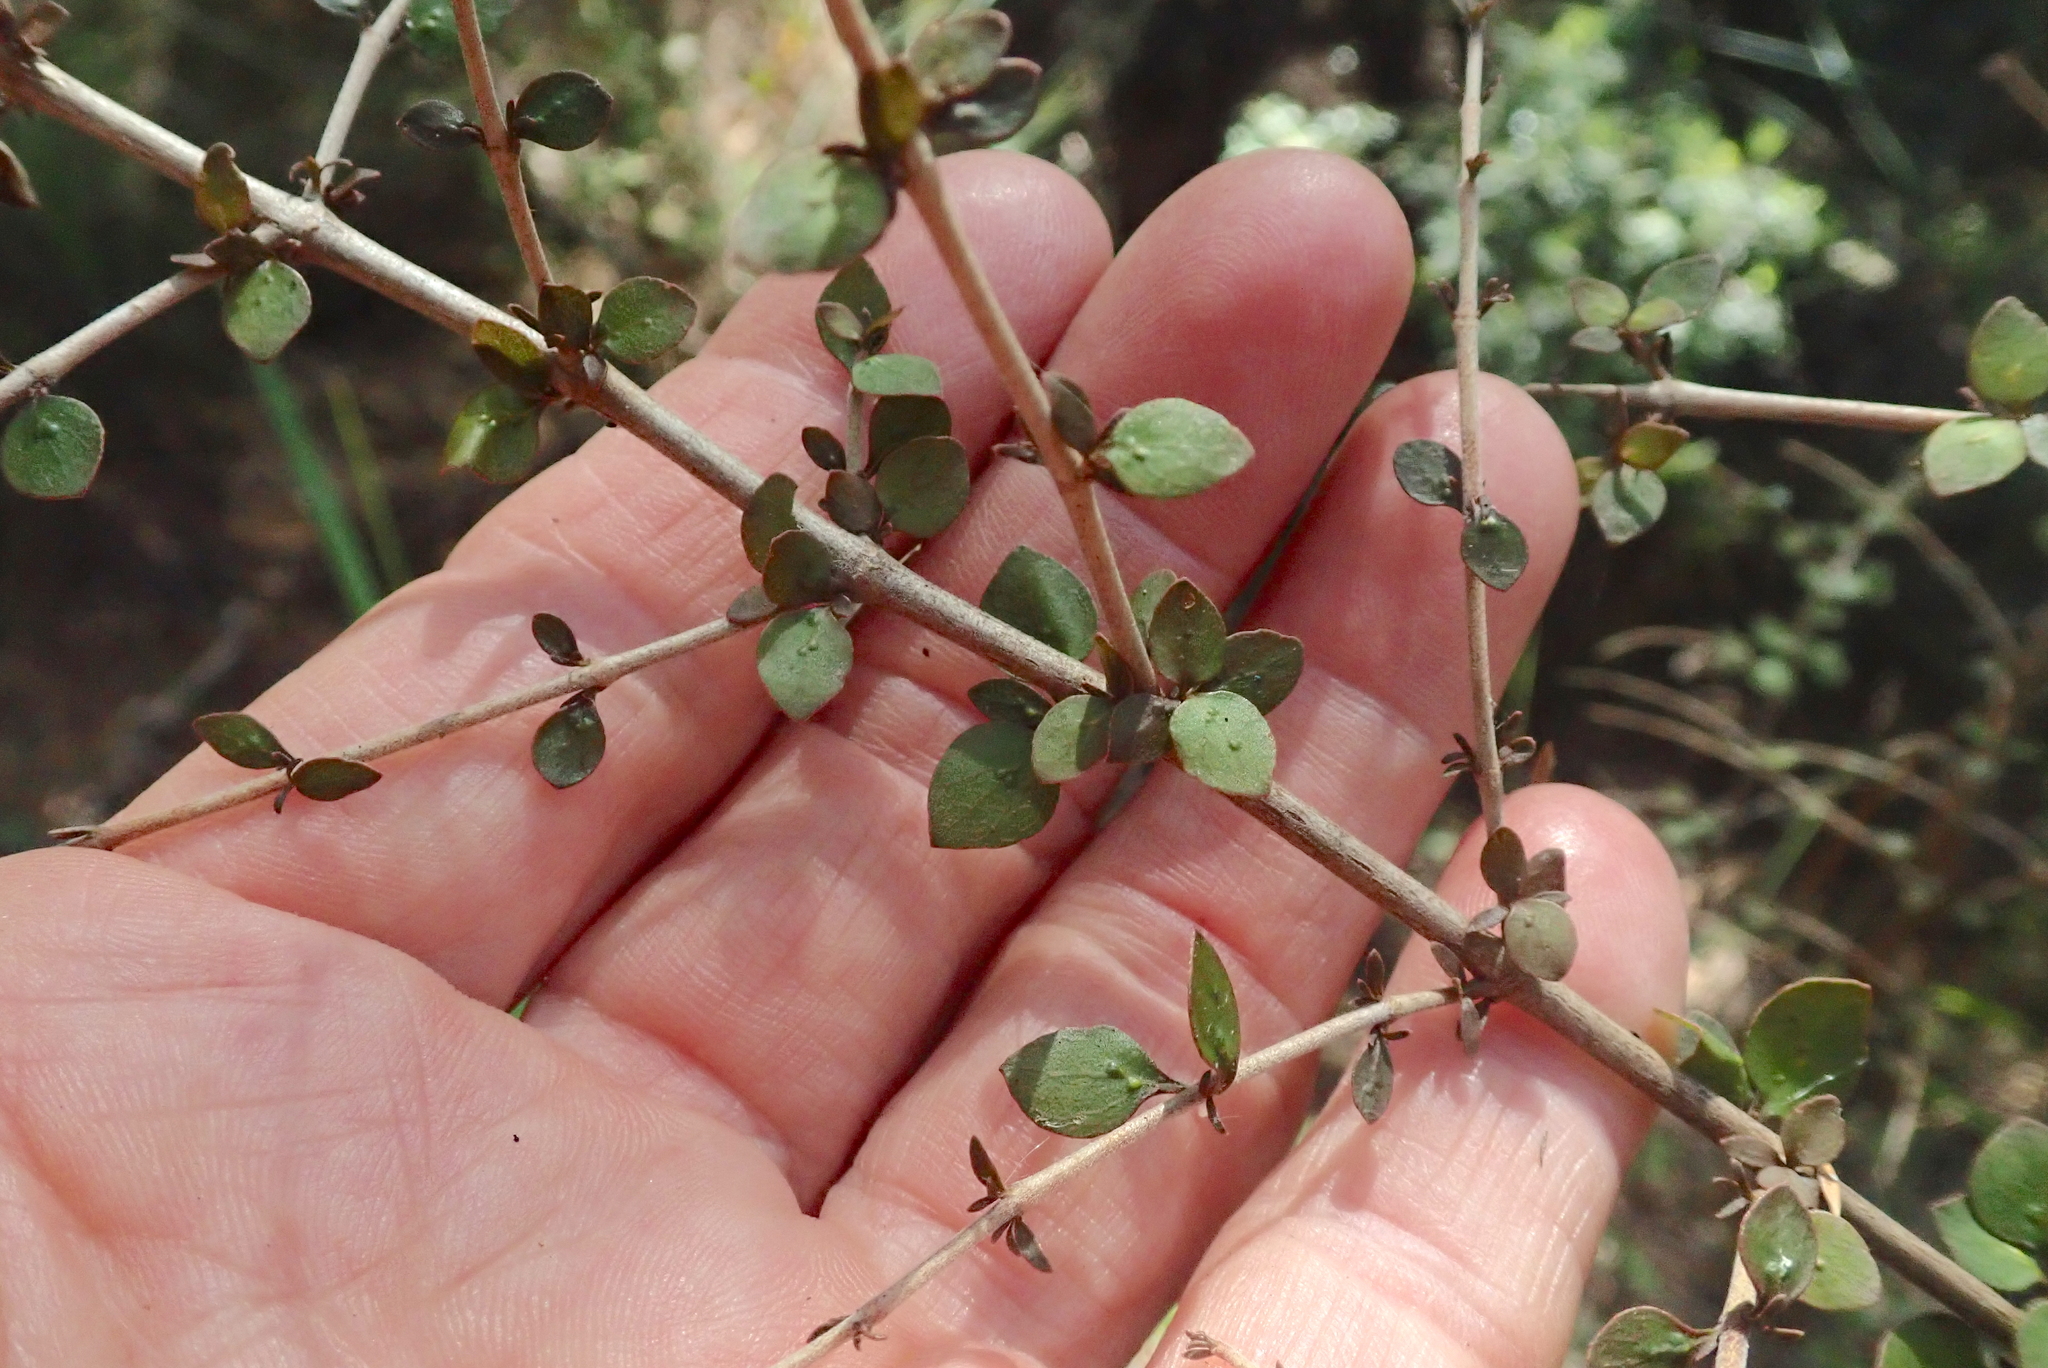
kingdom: Plantae
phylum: Tracheophyta
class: Magnoliopsida
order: Gentianales
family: Rubiaceae
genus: Coprosma
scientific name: Coprosma rhamnoides
